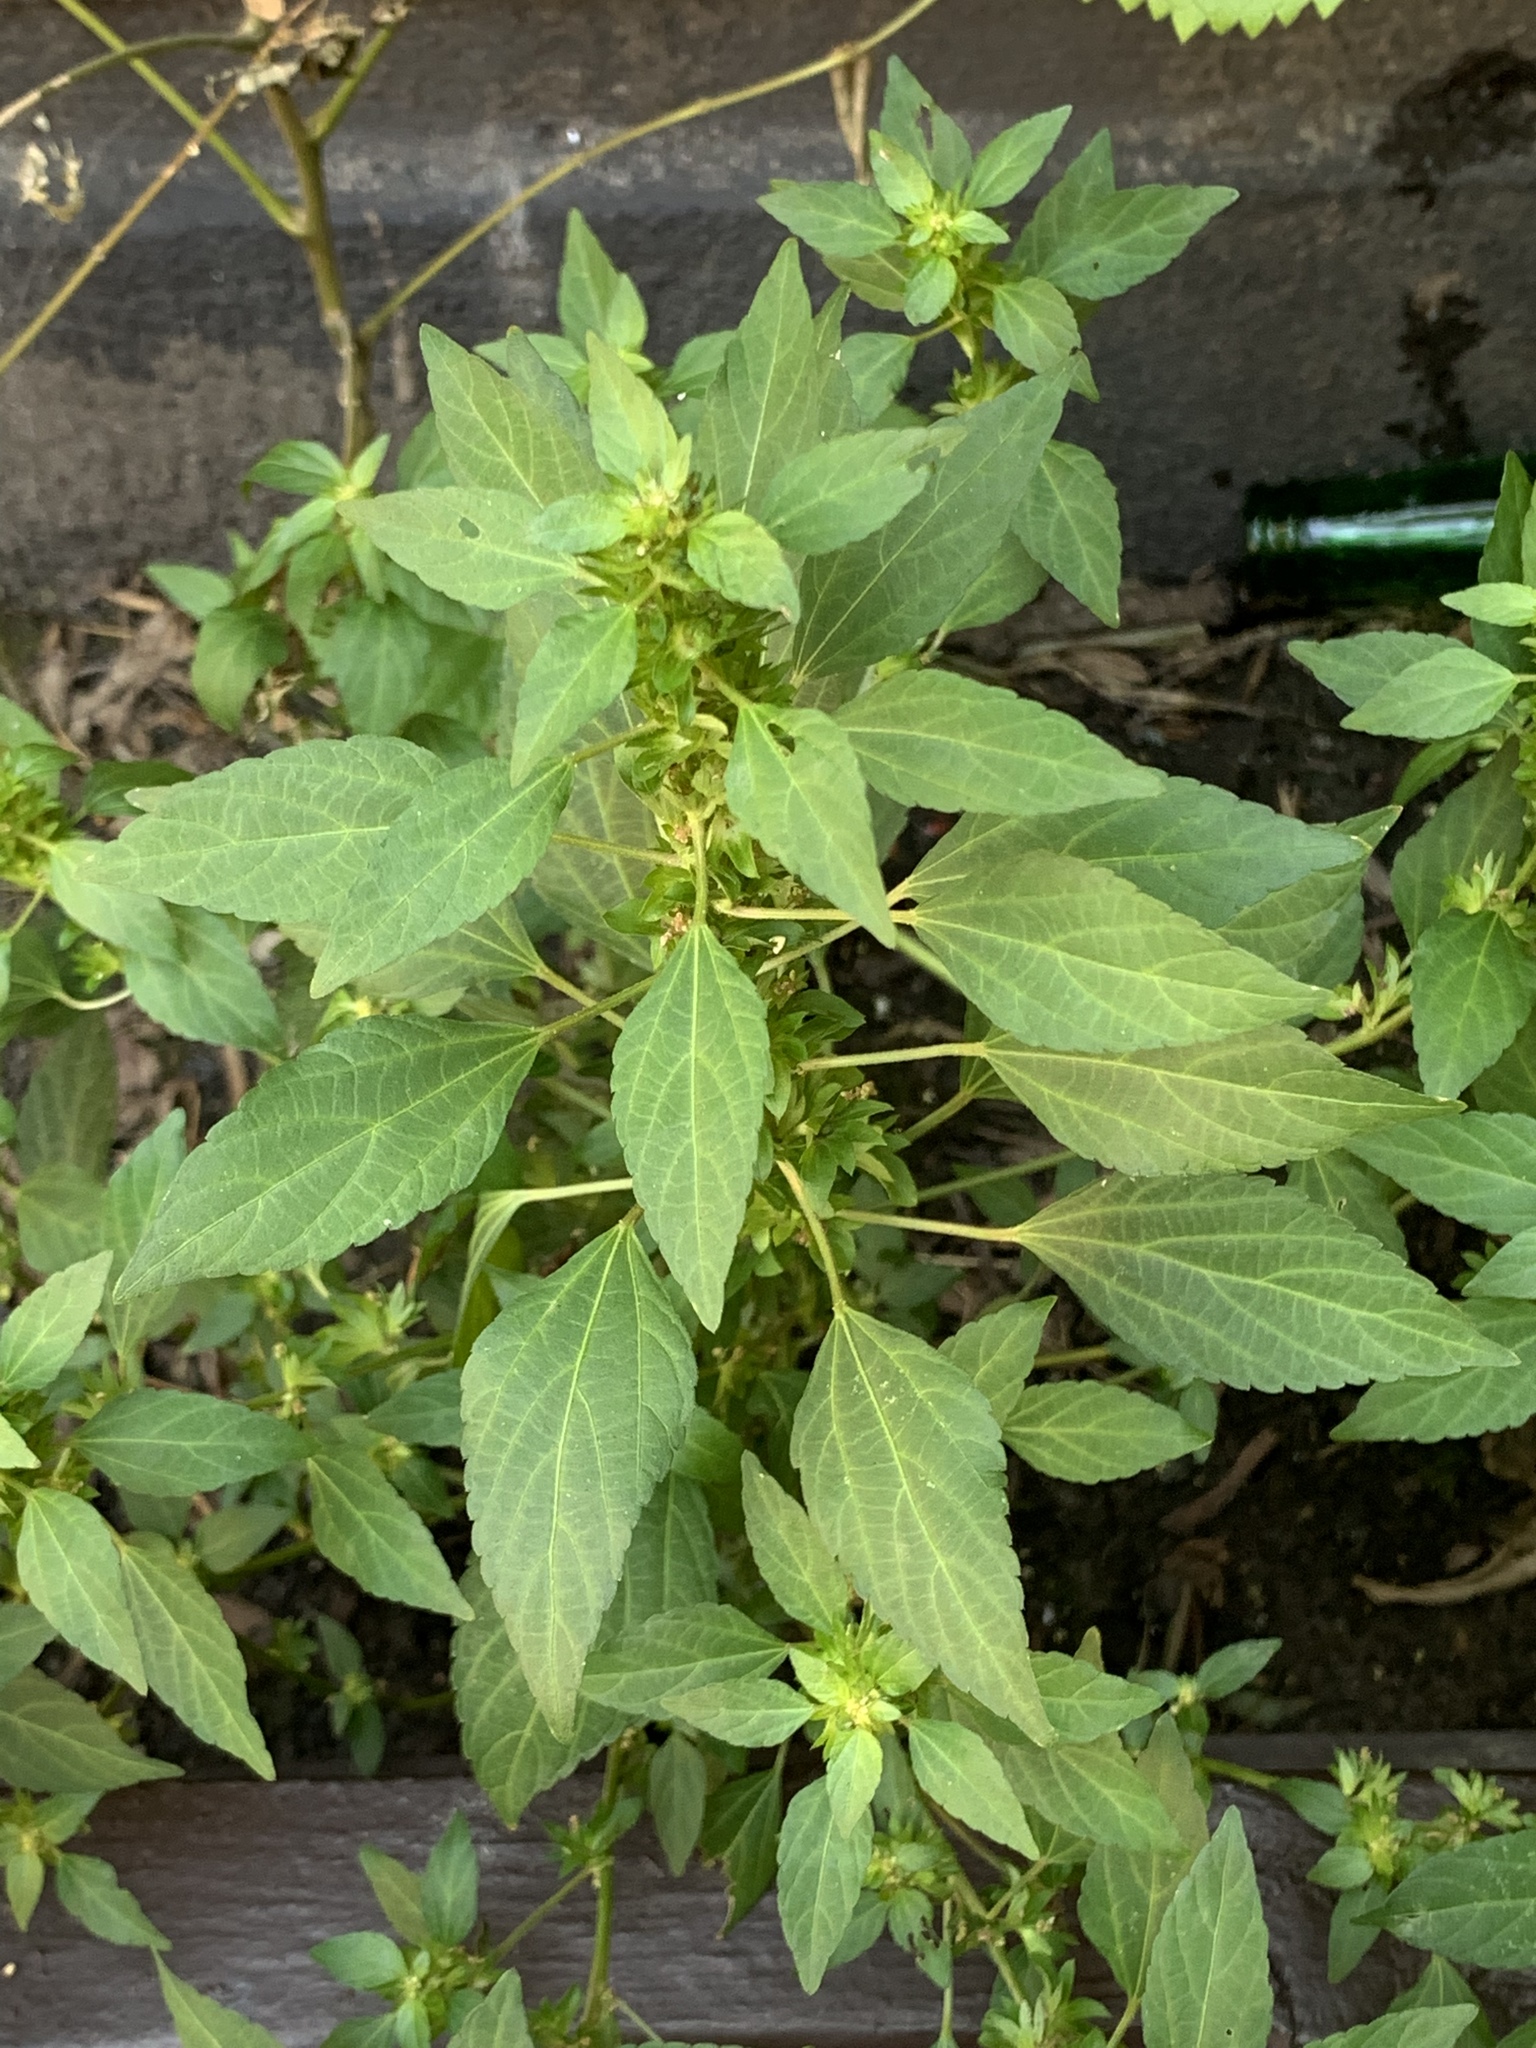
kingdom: Plantae
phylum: Tracheophyta
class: Magnoliopsida
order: Malpighiales
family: Euphorbiaceae
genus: Acalypha
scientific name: Acalypha rhomboidea
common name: Rhombic copperleaf
